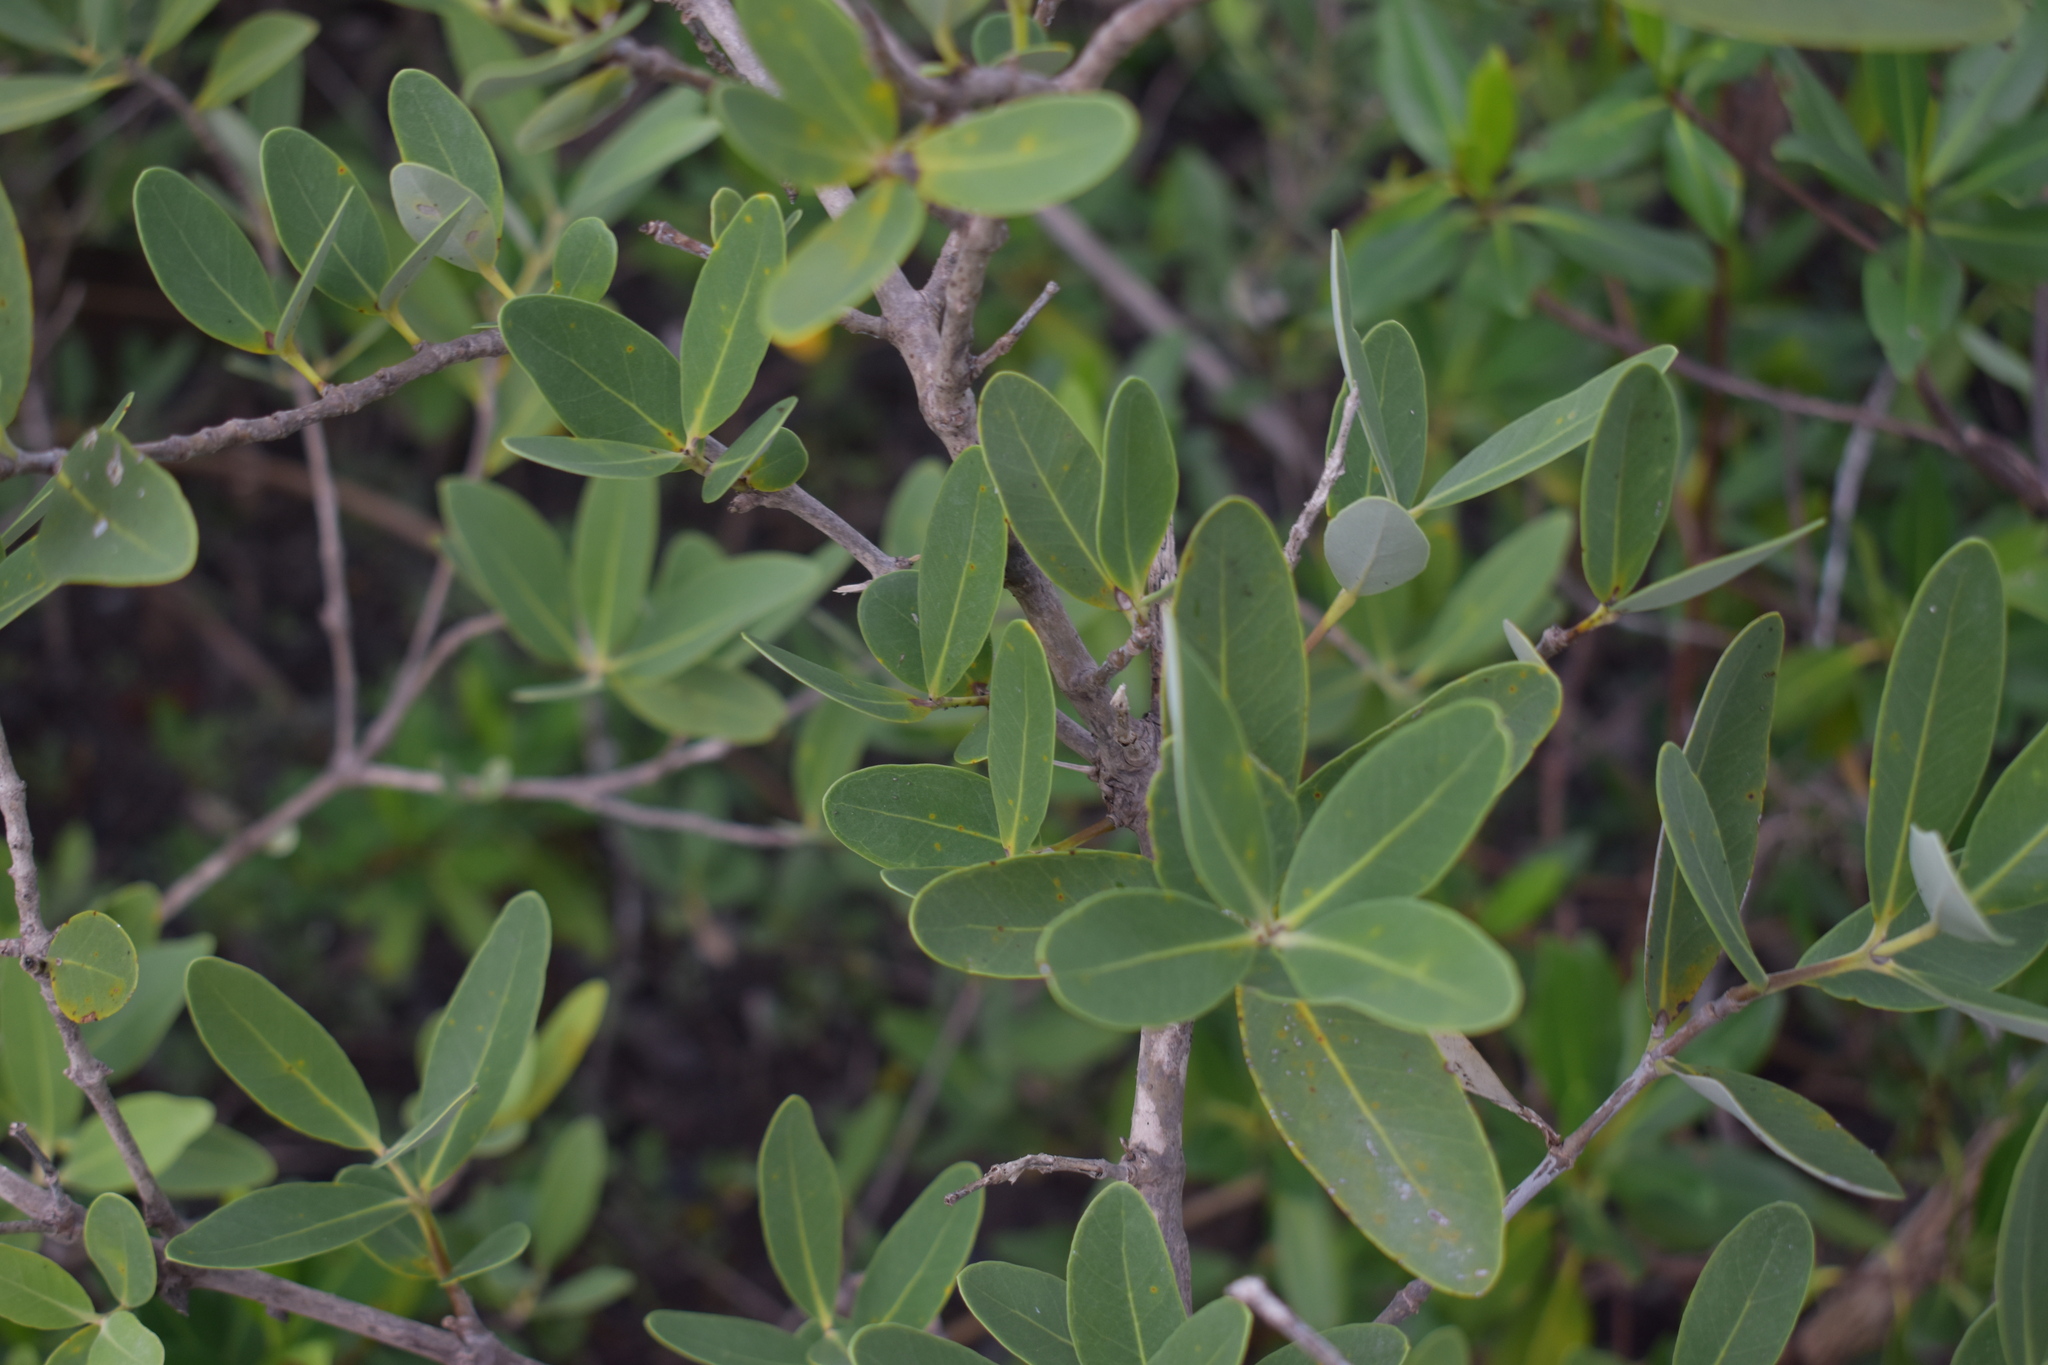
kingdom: Plantae
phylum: Tracheophyta
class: Magnoliopsida
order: Lamiales
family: Acanthaceae
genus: Avicennia
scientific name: Avicennia germinans
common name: Black mangrove
